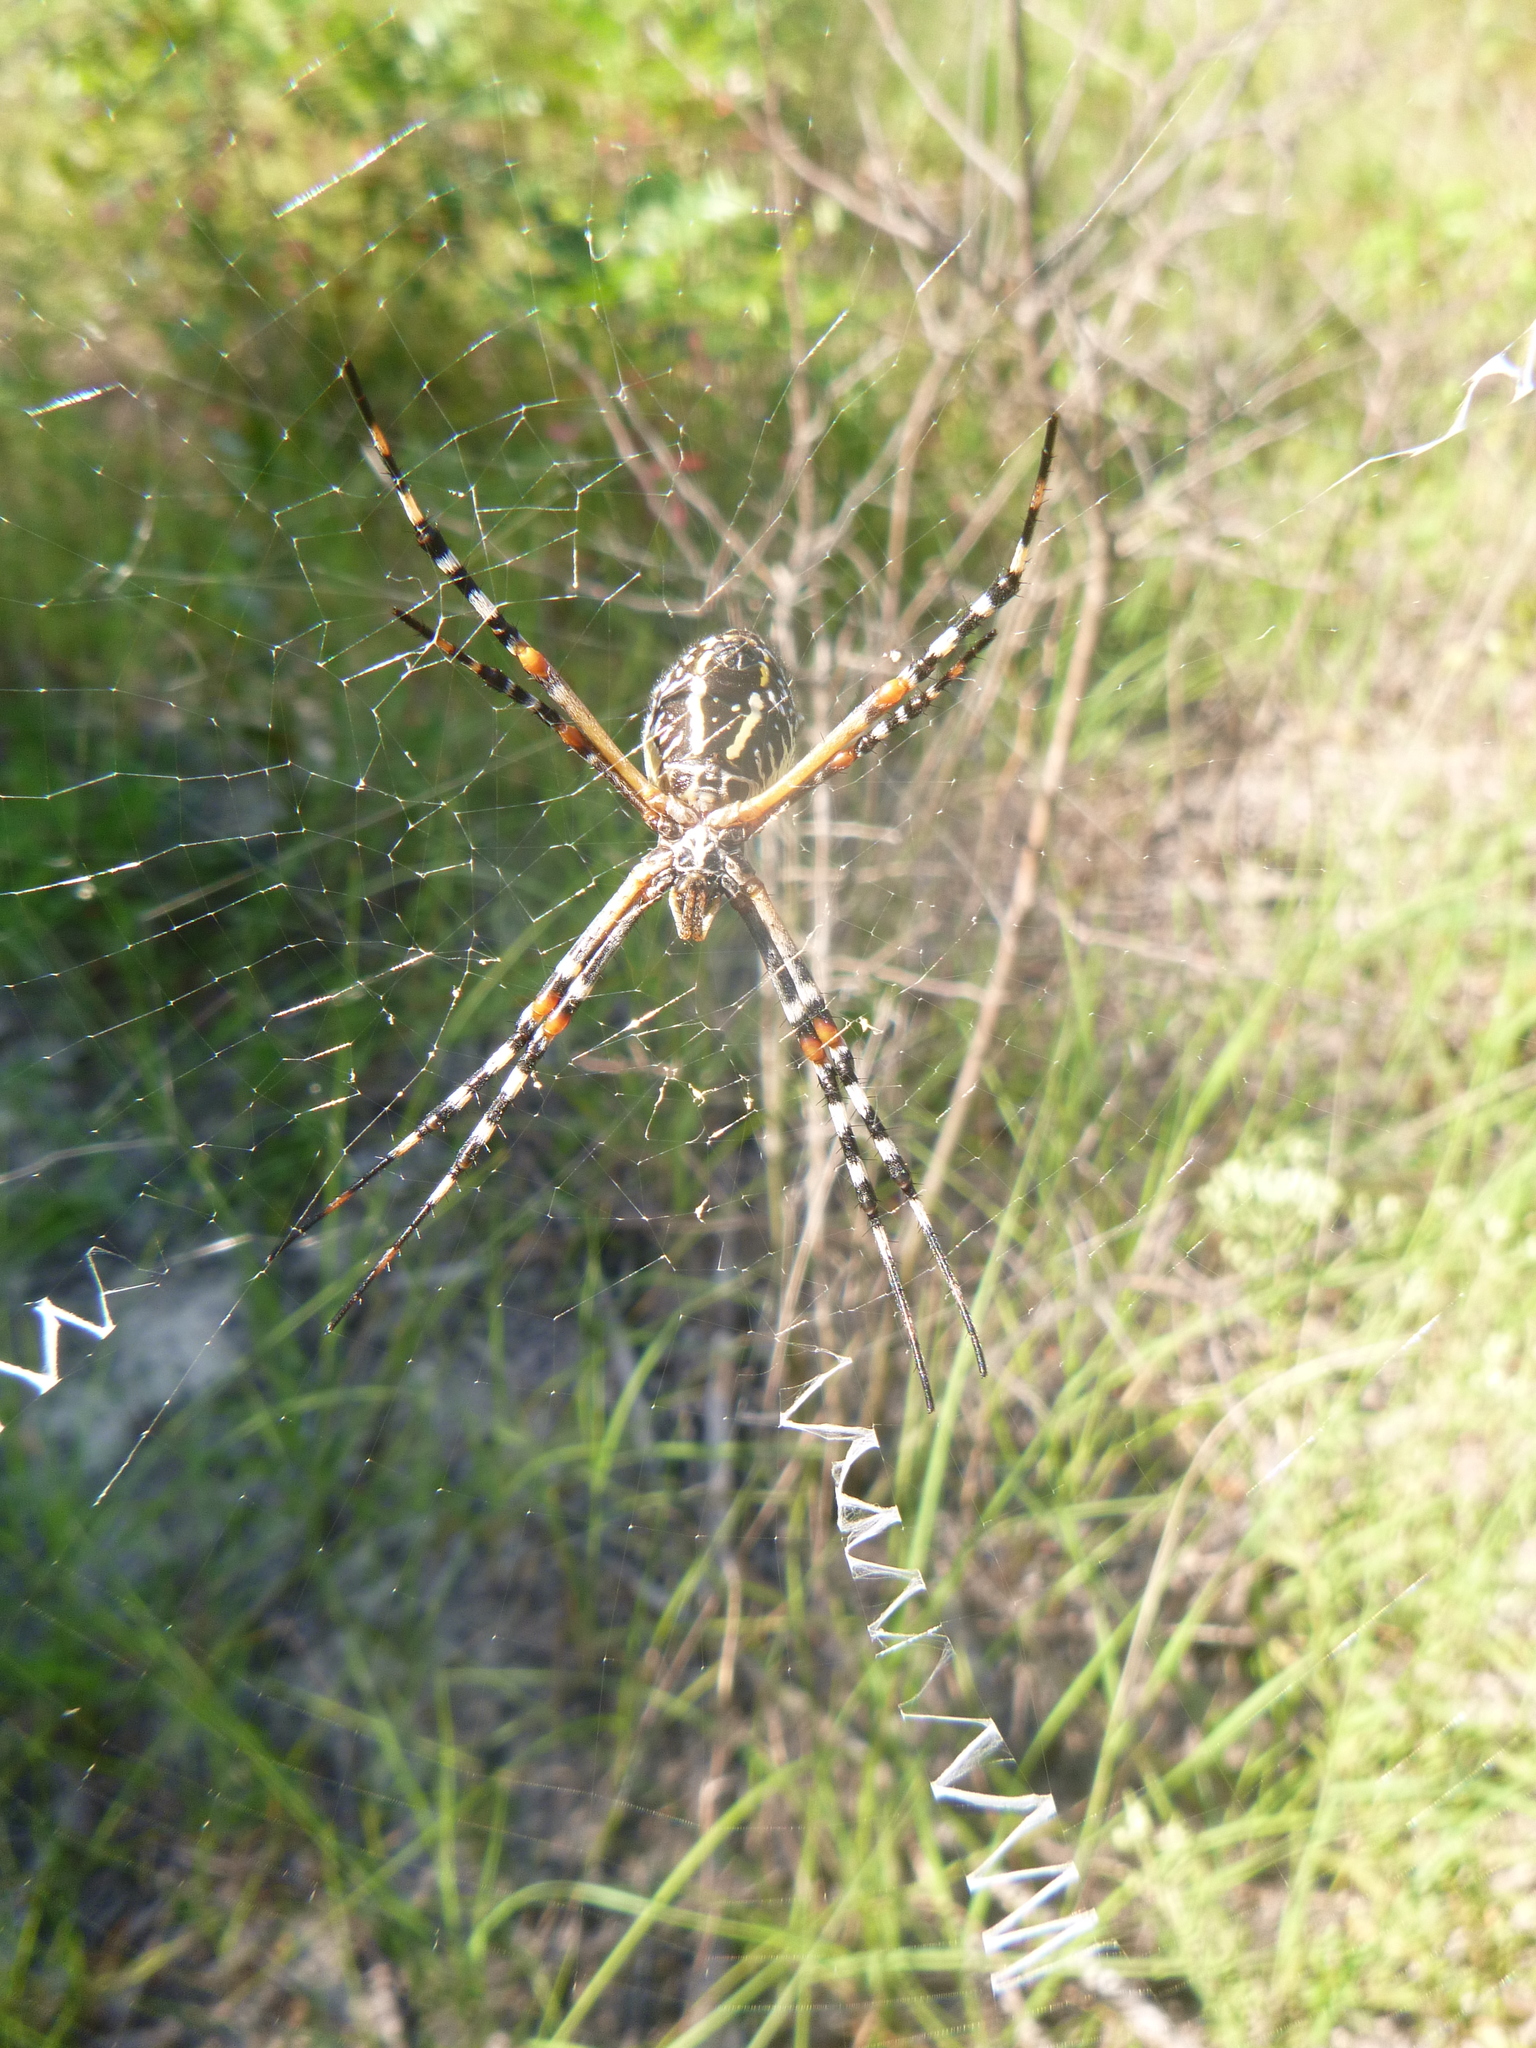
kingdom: Animalia
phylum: Arthropoda
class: Arachnida
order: Araneae
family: Araneidae
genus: Argiope
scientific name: Argiope florida
